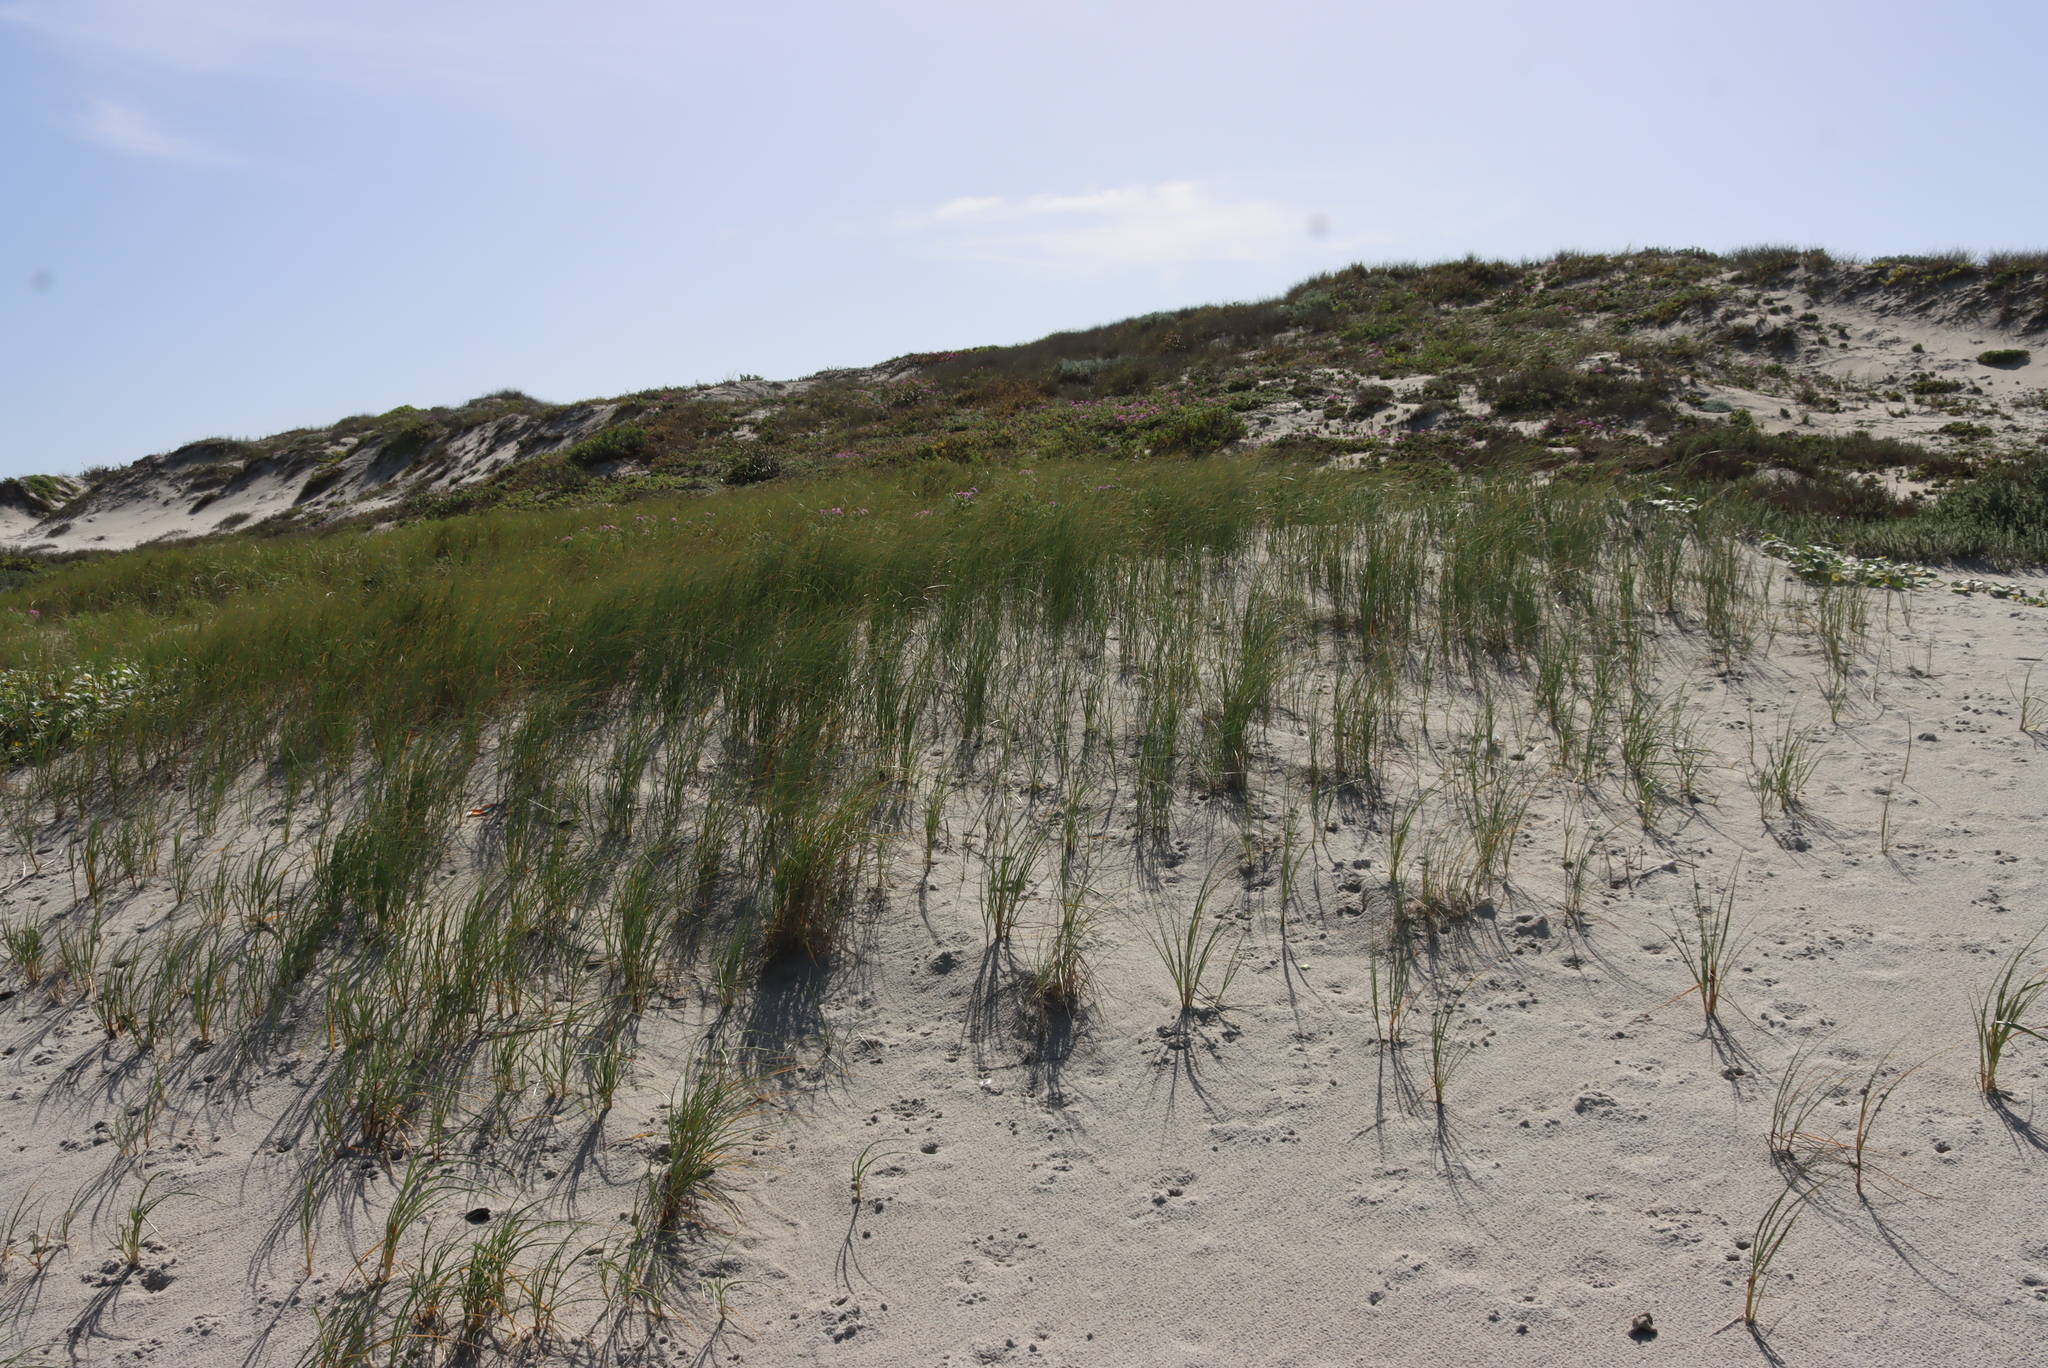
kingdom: Plantae
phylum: Tracheophyta
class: Liliopsida
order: Poales
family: Poaceae
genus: Thinopyrum
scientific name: Thinopyrum distichum
